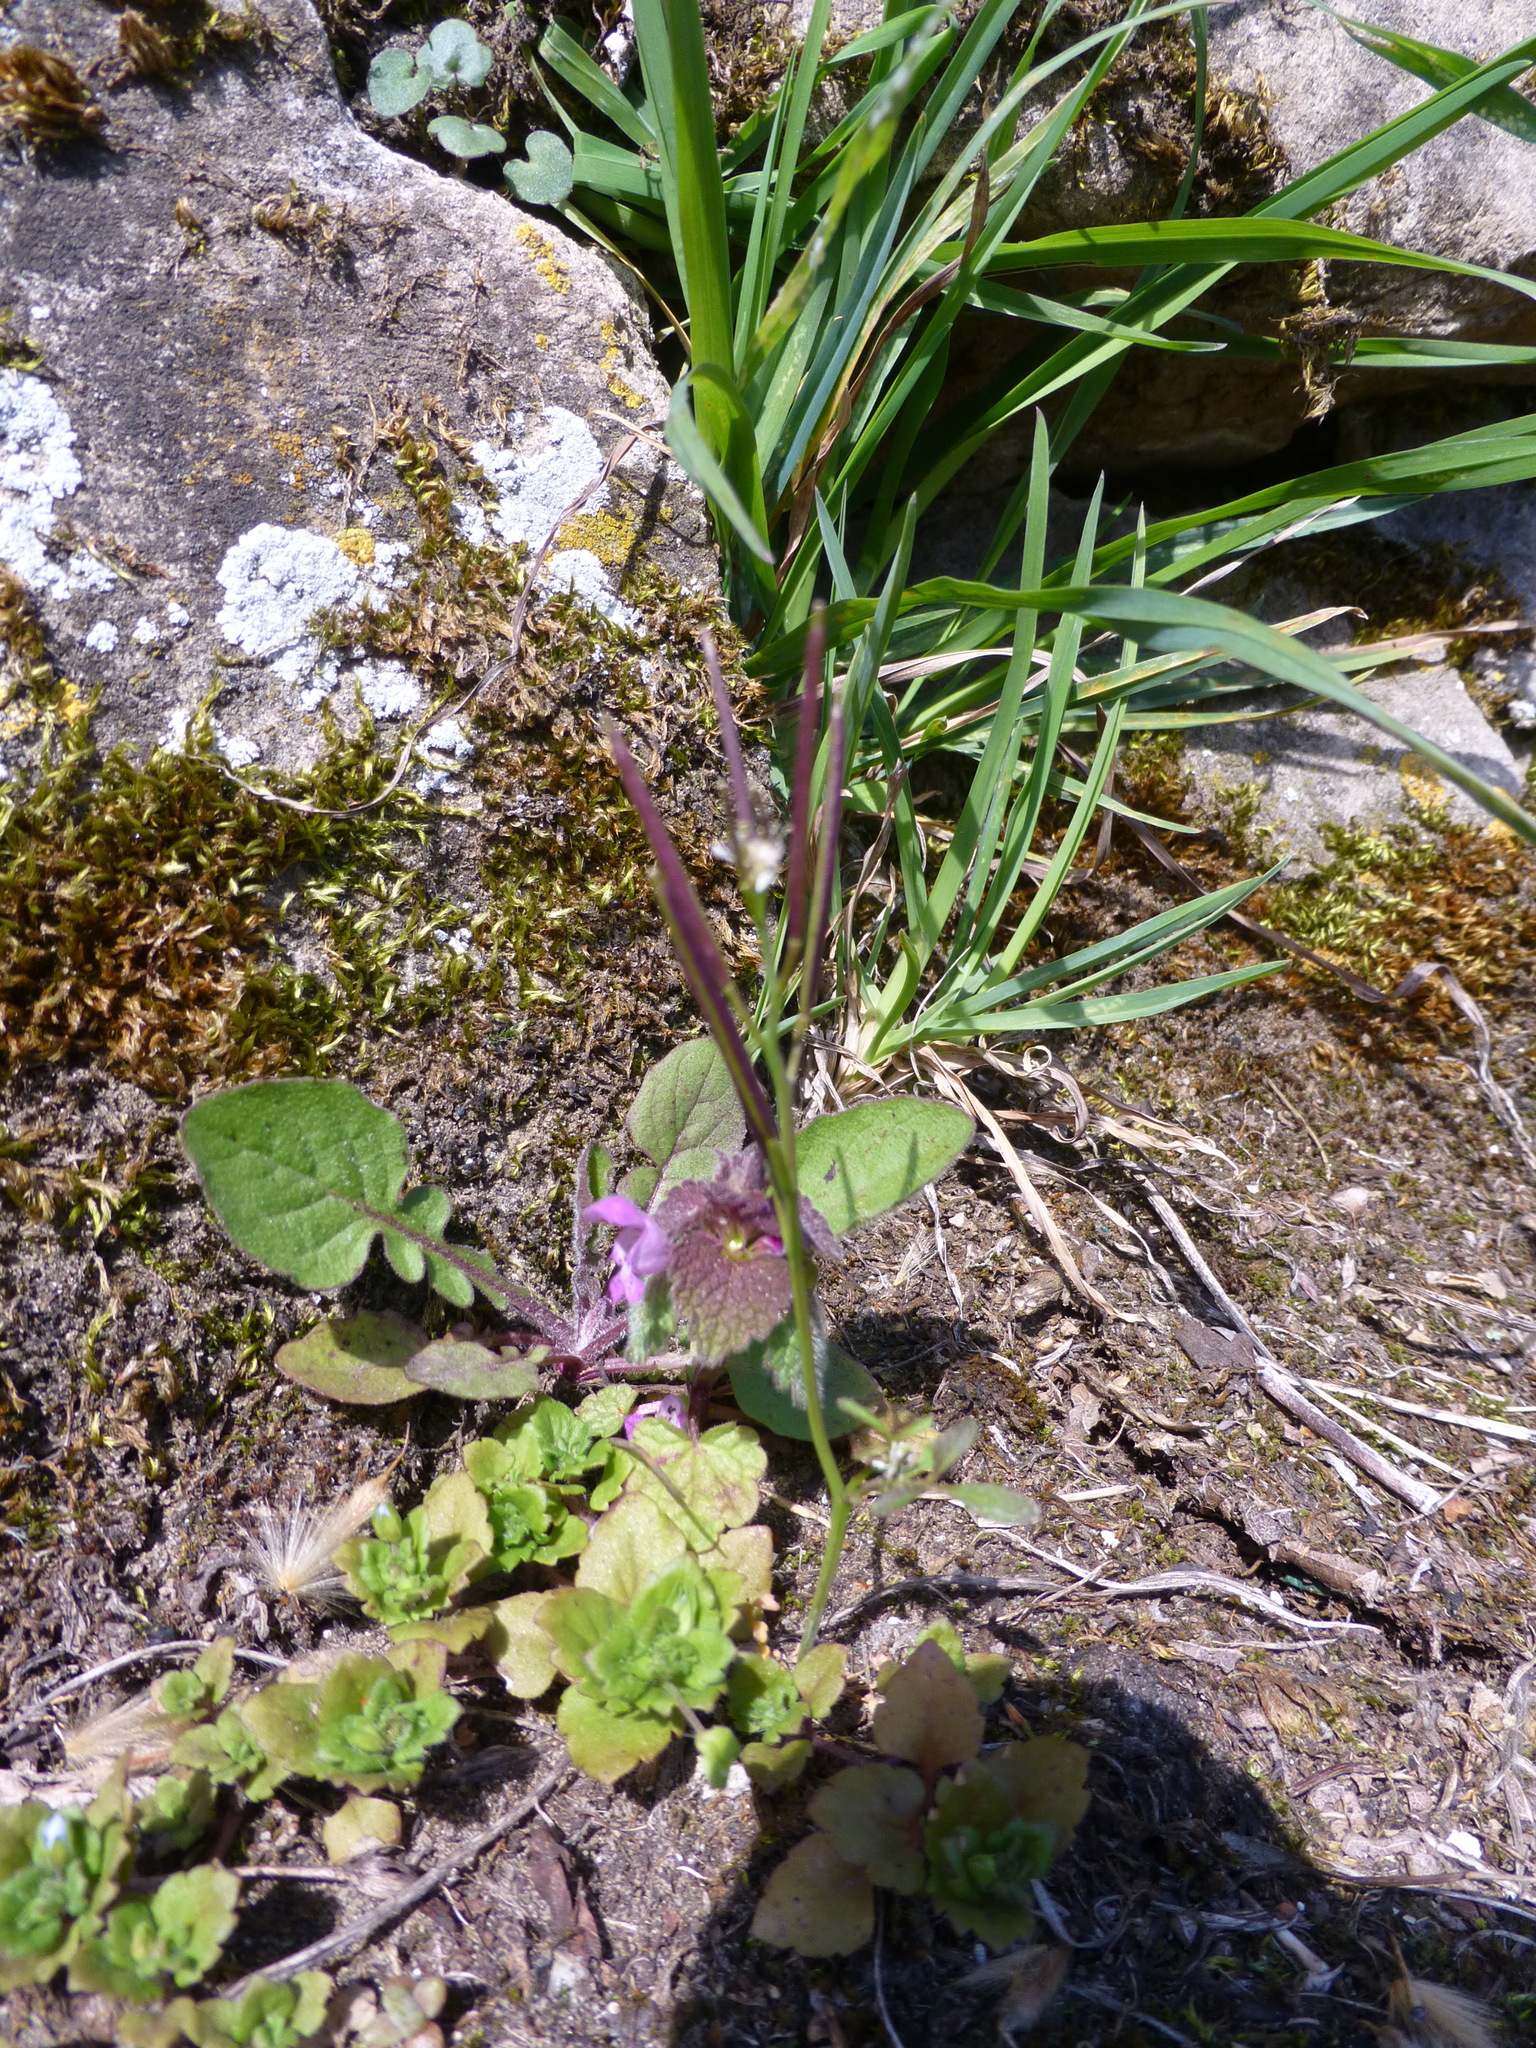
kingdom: Plantae
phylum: Tracheophyta
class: Magnoliopsida
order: Brassicales
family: Brassicaceae
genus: Cardamine
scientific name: Cardamine hirsuta
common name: Hairy bittercress
